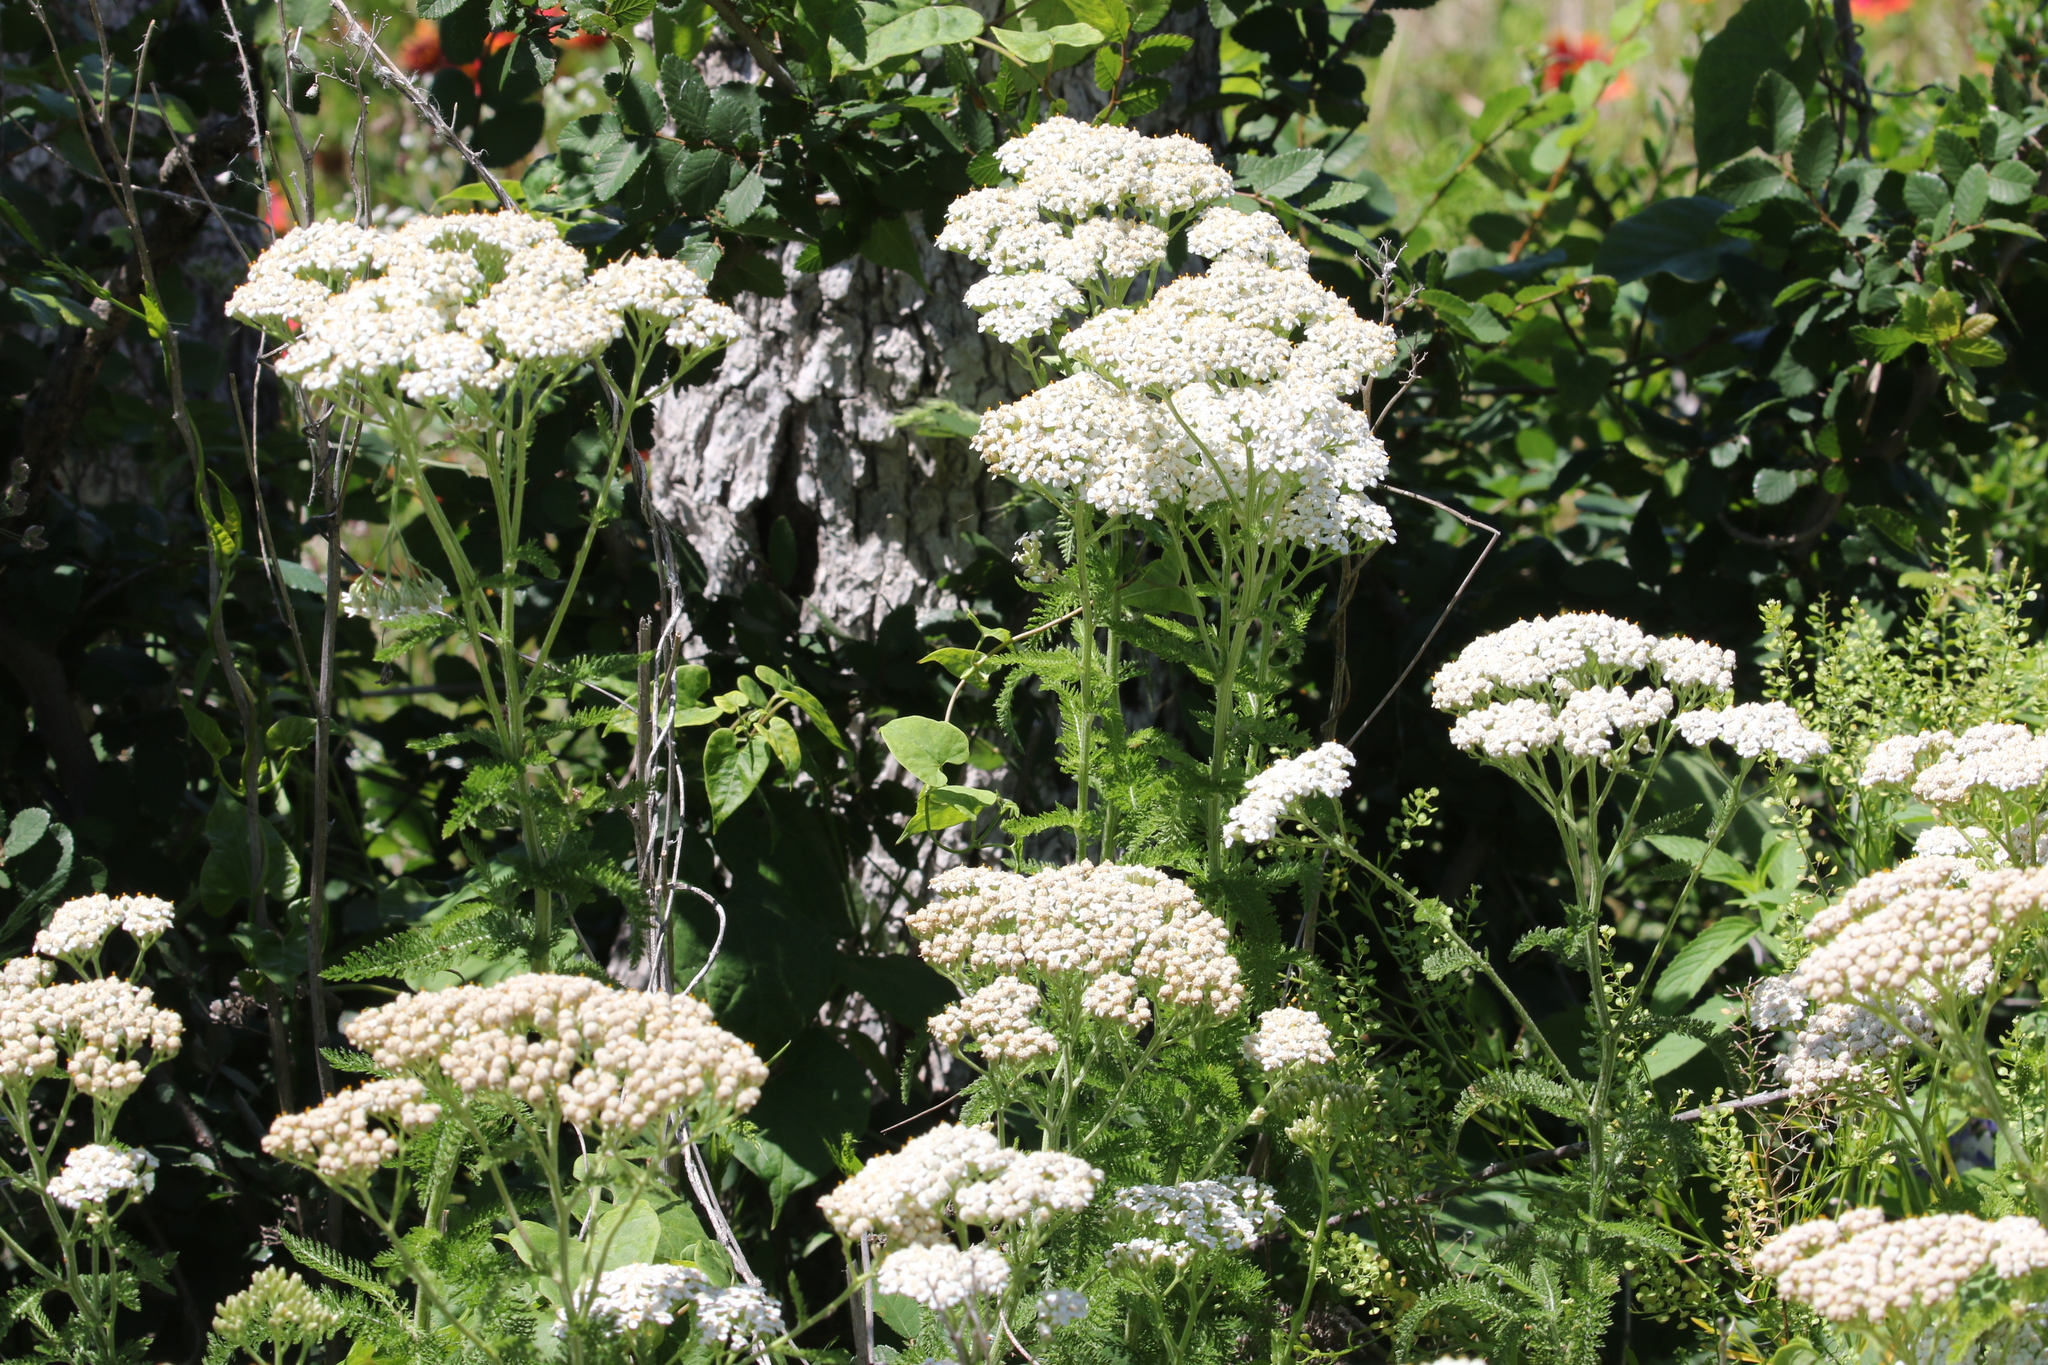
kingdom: Plantae
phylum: Tracheophyta
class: Magnoliopsida
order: Asterales
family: Asteraceae
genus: Achillea
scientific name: Achillea millefolium
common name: Yarrow
